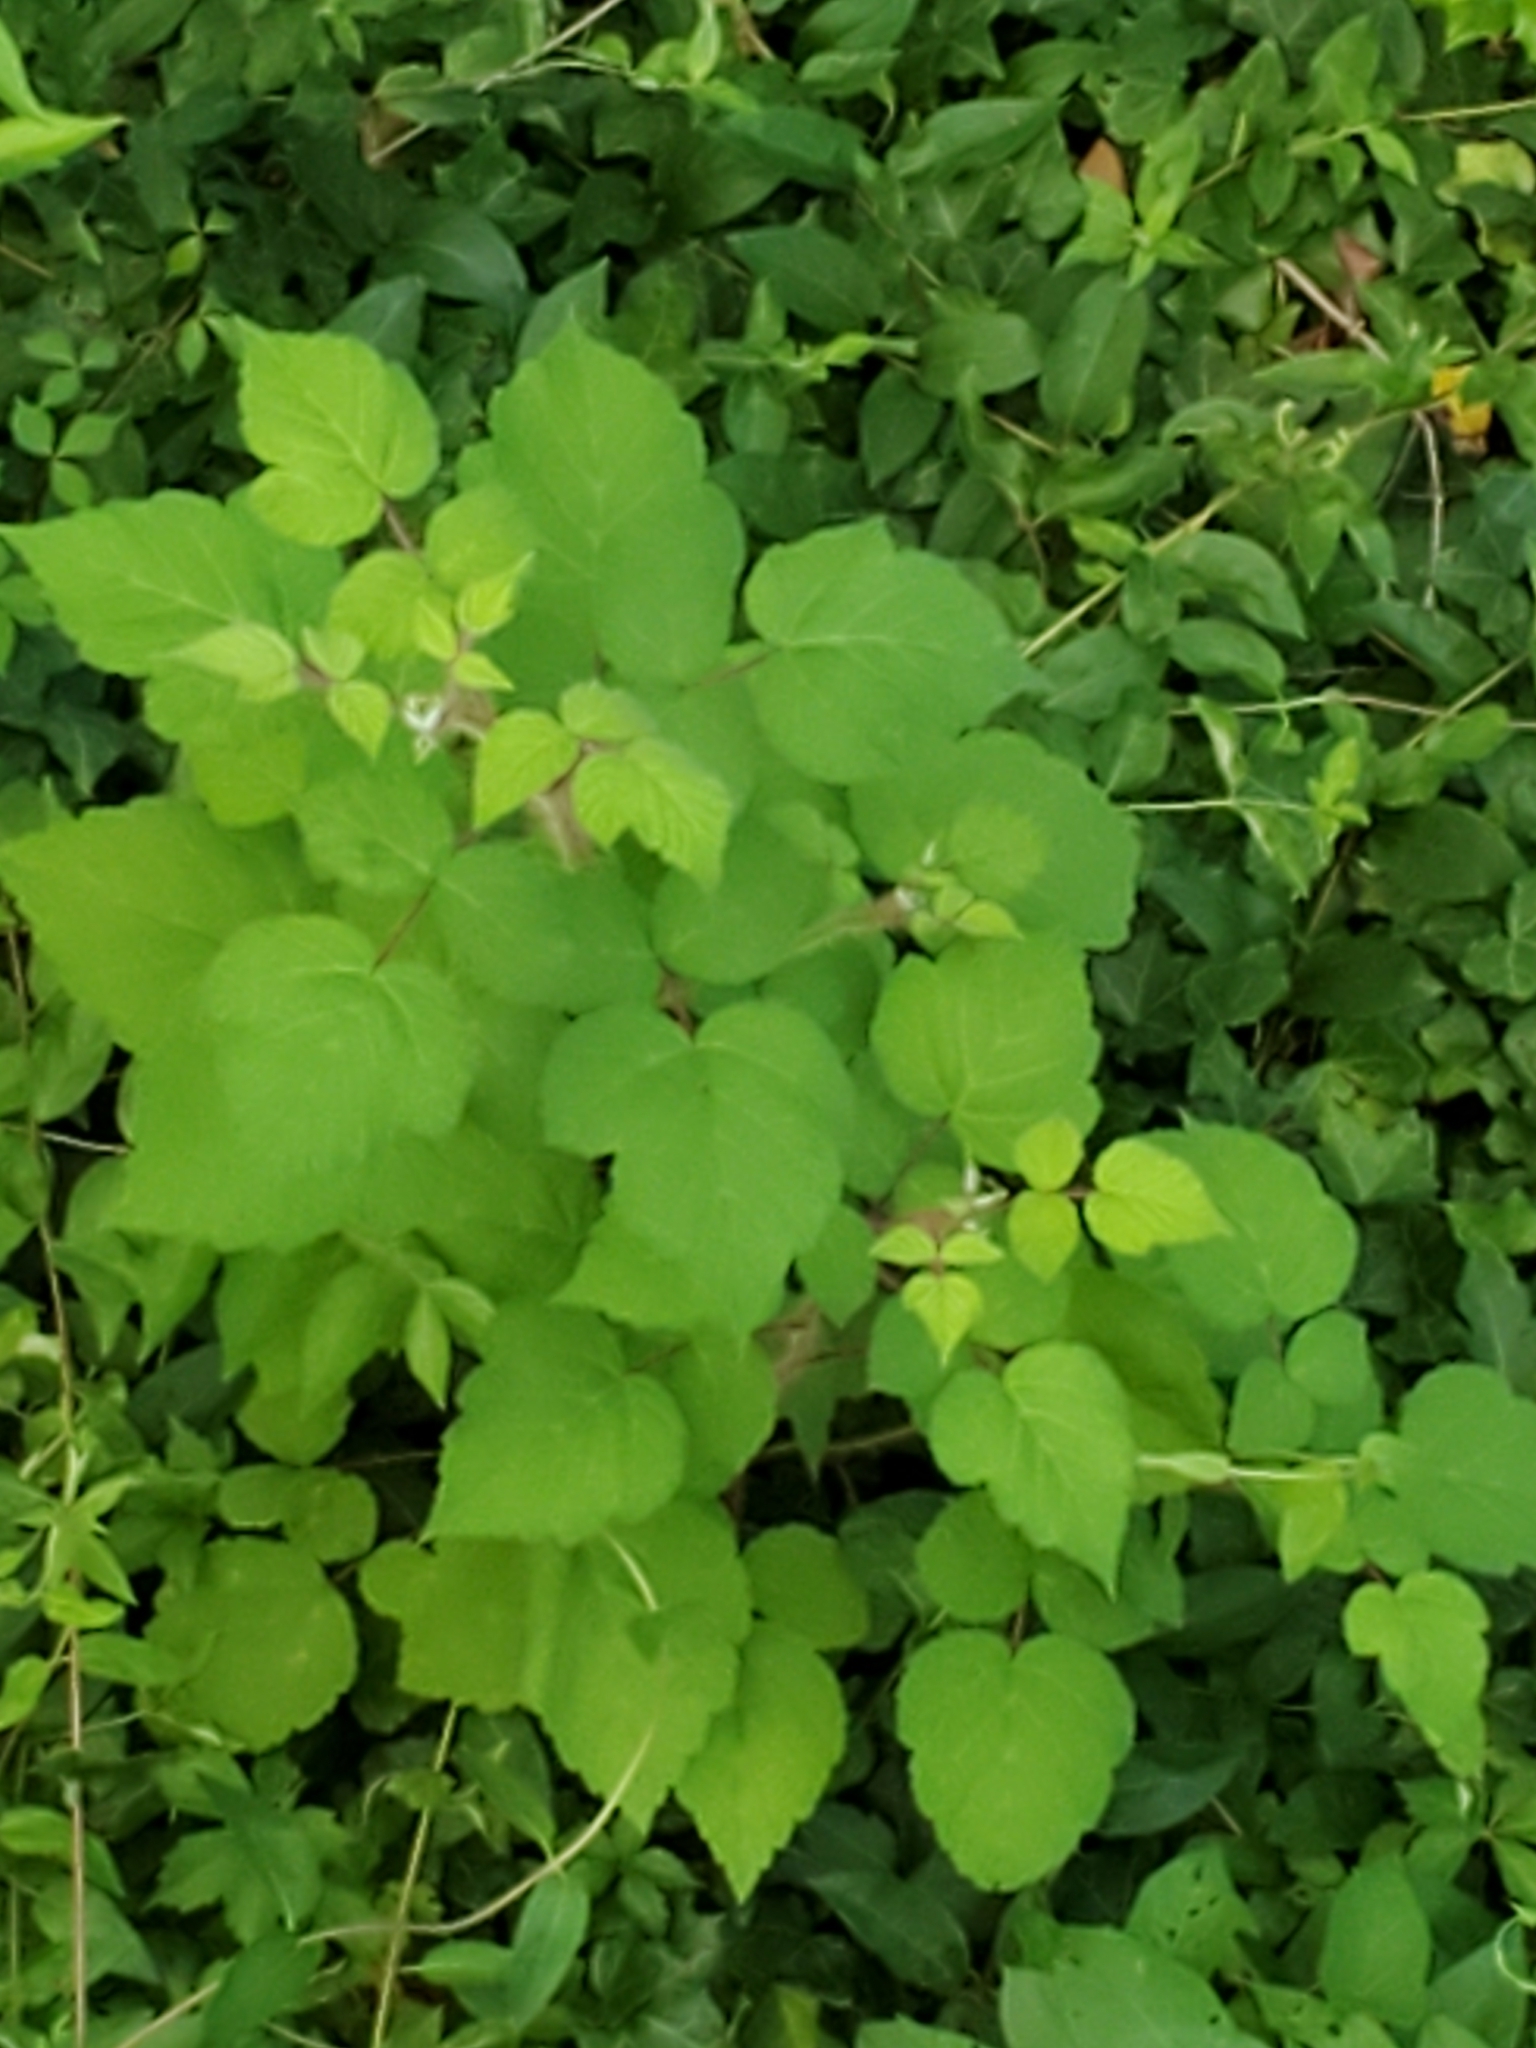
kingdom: Plantae
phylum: Tracheophyta
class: Magnoliopsida
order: Rosales
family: Rosaceae
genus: Rubus
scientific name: Rubus phoenicolasius
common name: Japanese wineberry
